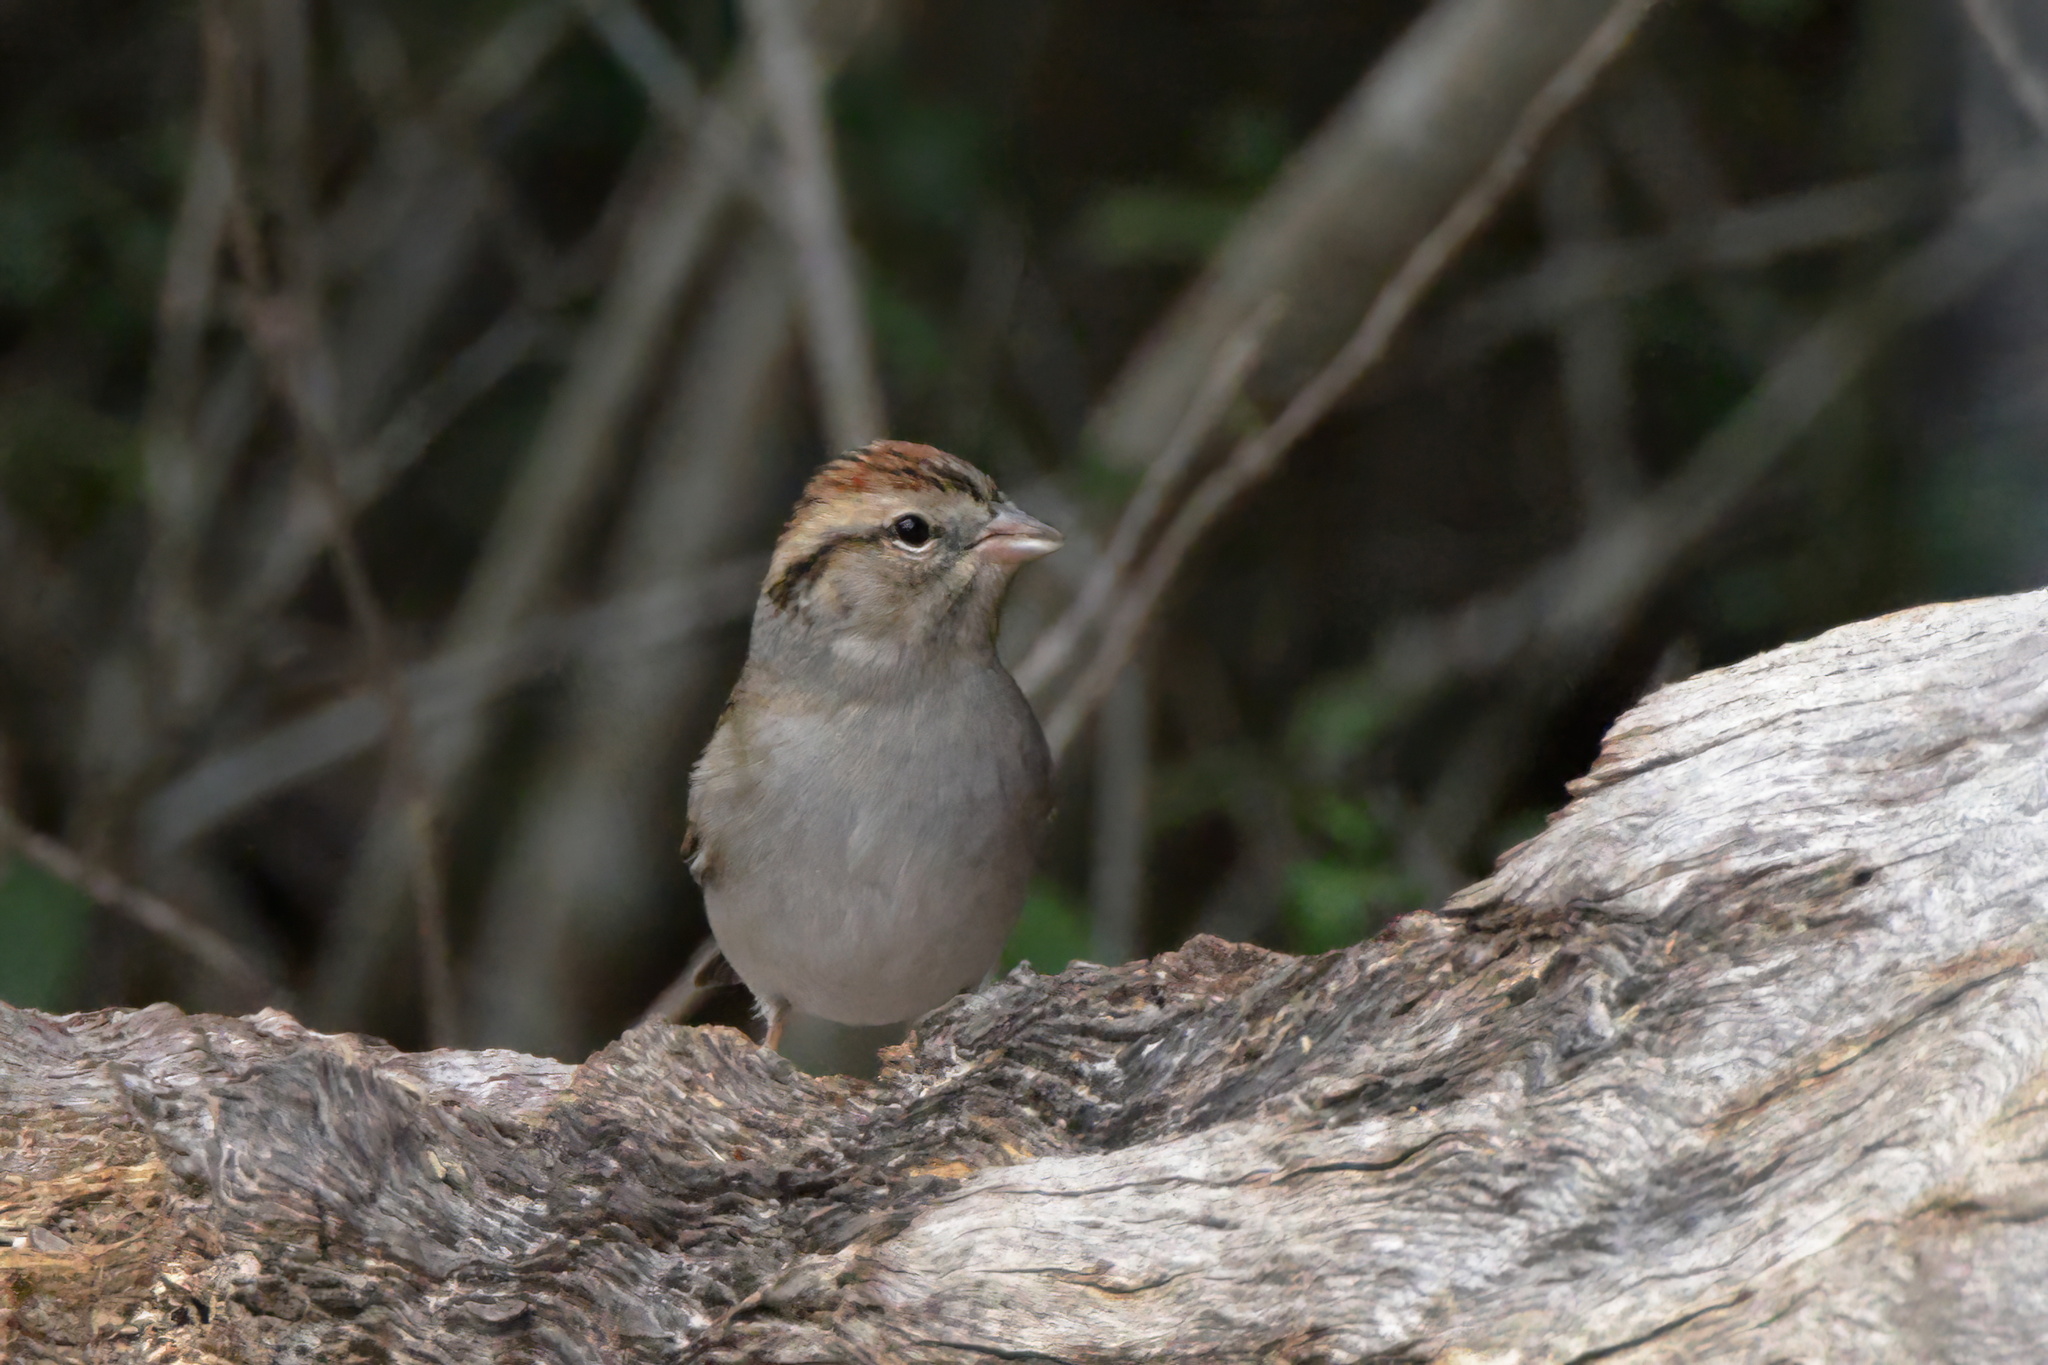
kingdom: Animalia
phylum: Chordata
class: Aves
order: Passeriformes
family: Passerellidae
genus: Spizella
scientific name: Spizella passerina
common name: Chipping sparrow
